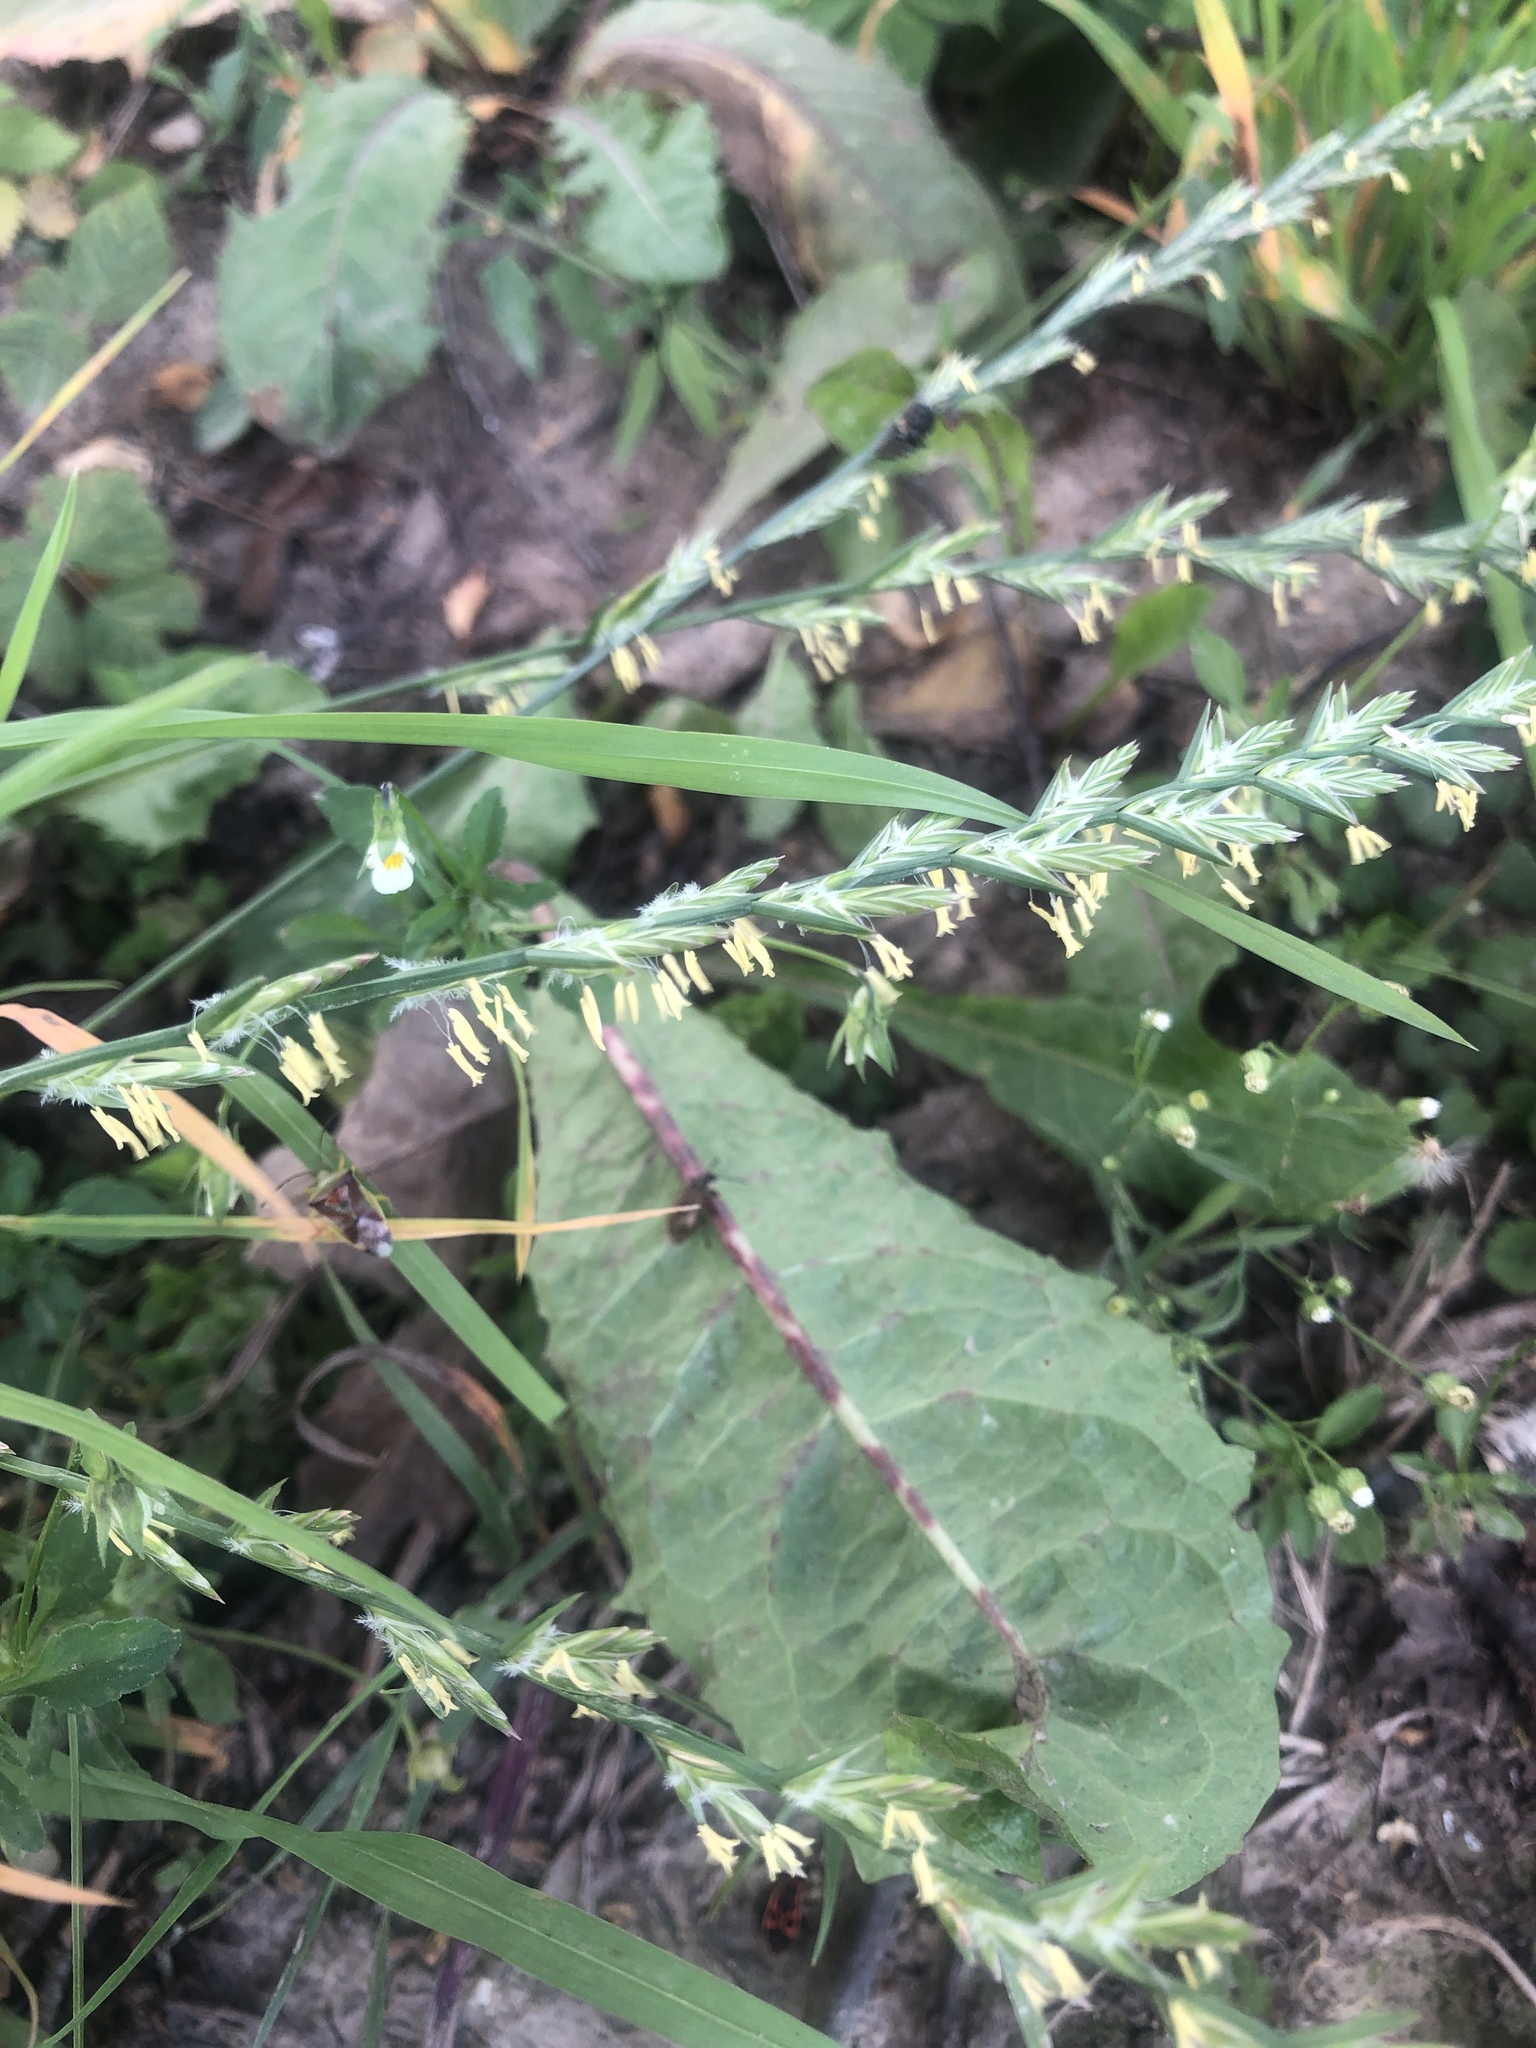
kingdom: Plantae
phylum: Tracheophyta
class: Liliopsida
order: Poales
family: Poaceae
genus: Lolium
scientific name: Lolium perenne
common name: Perennial ryegrass
